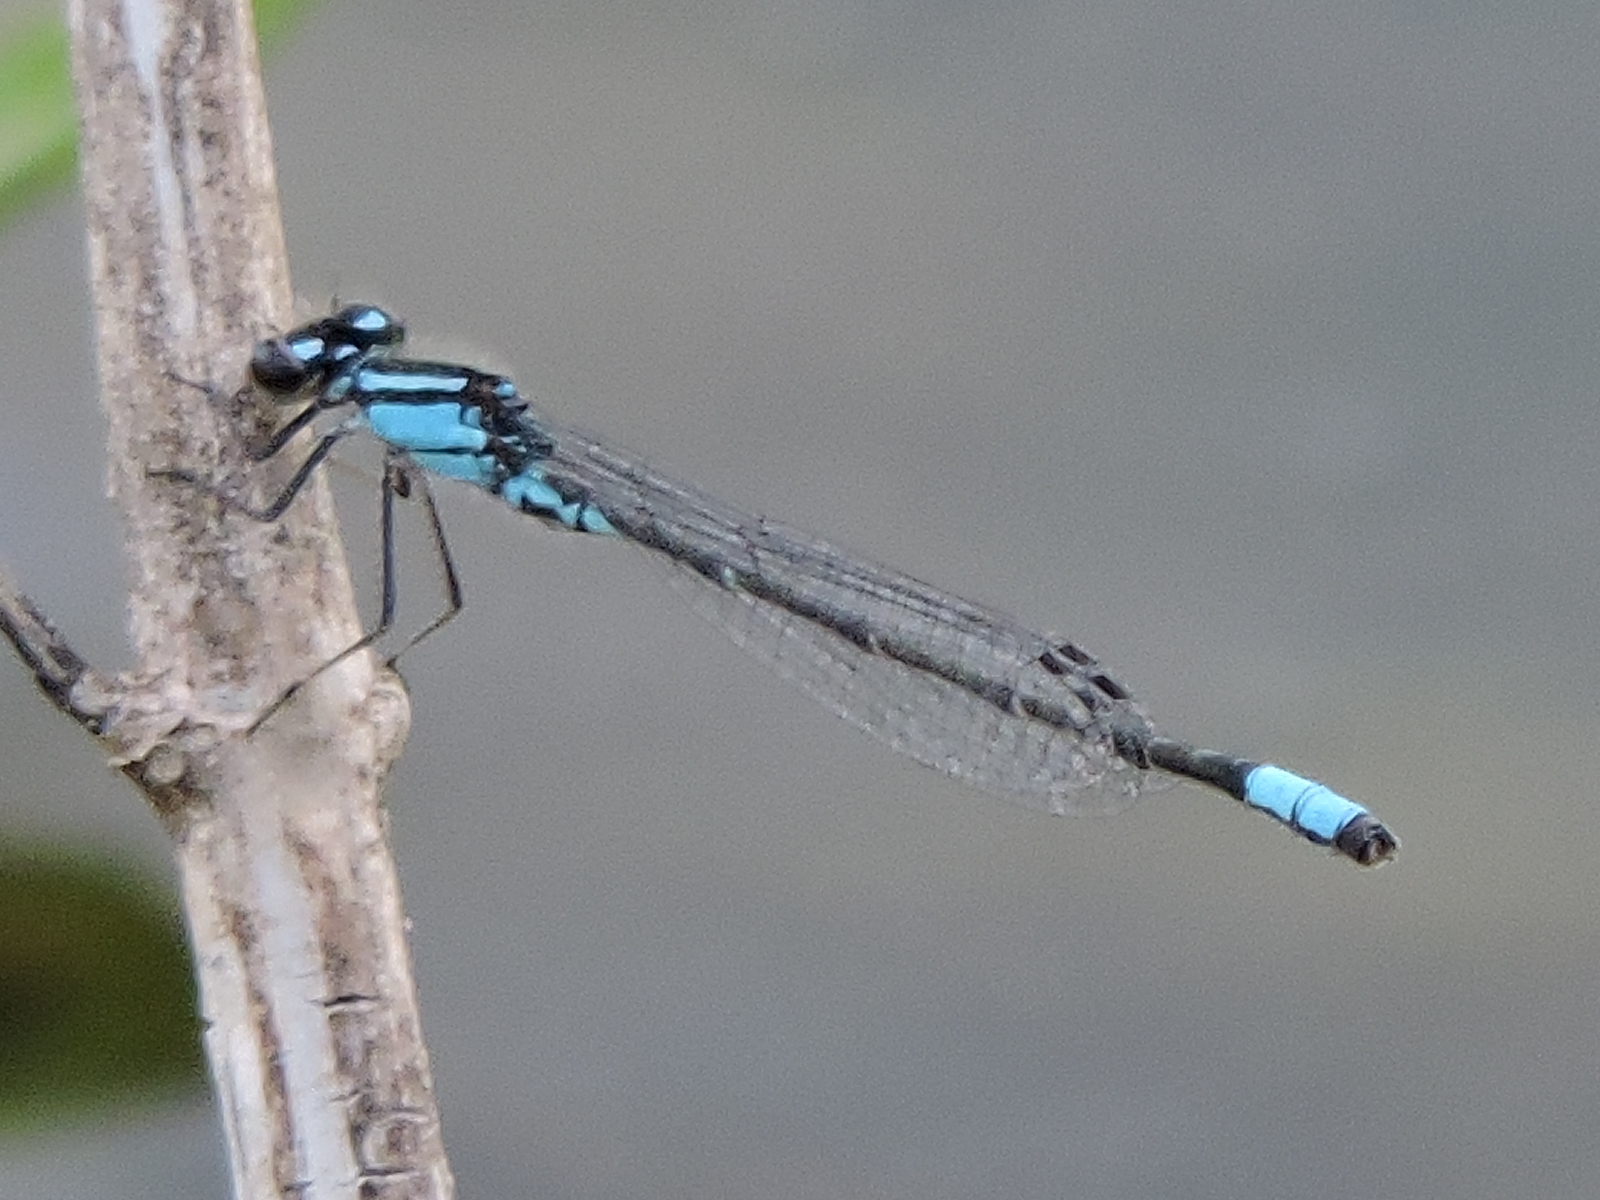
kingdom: Animalia
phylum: Arthropoda
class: Insecta
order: Odonata
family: Coenagrionidae
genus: Enallagma
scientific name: Enallagma geminatum
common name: Skimming bluet
